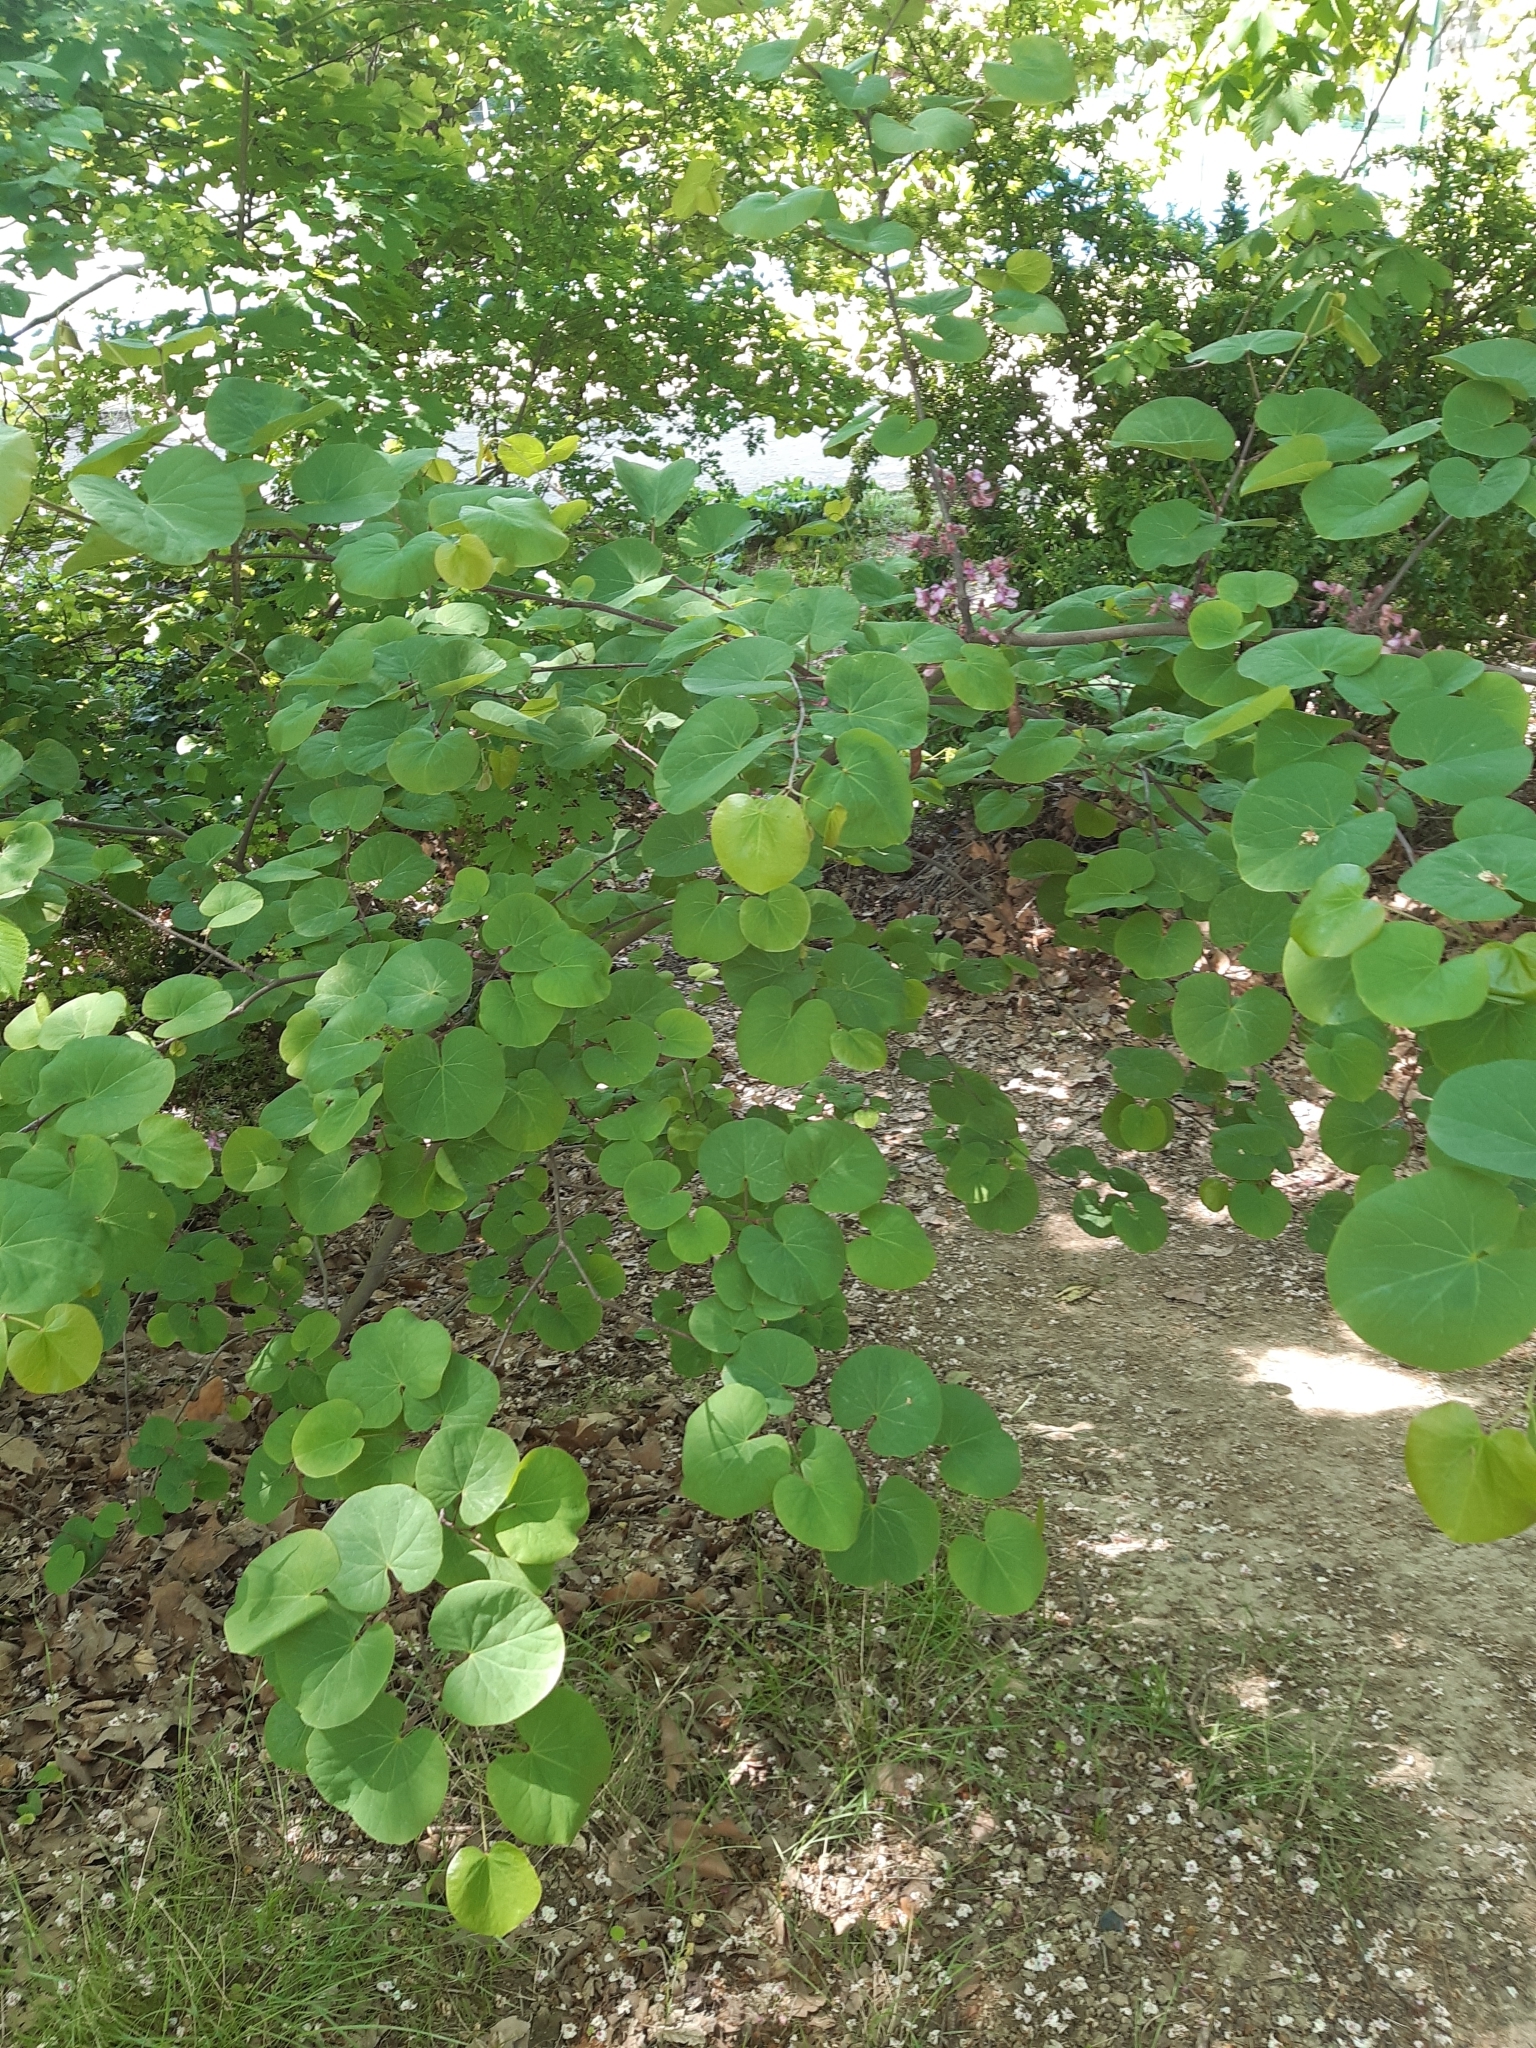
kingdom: Plantae
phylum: Tracheophyta
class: Magnoliopsida
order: Fabales
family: Fabaceae
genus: Cercis
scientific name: Cercis siliquastrum
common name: Judas tree
